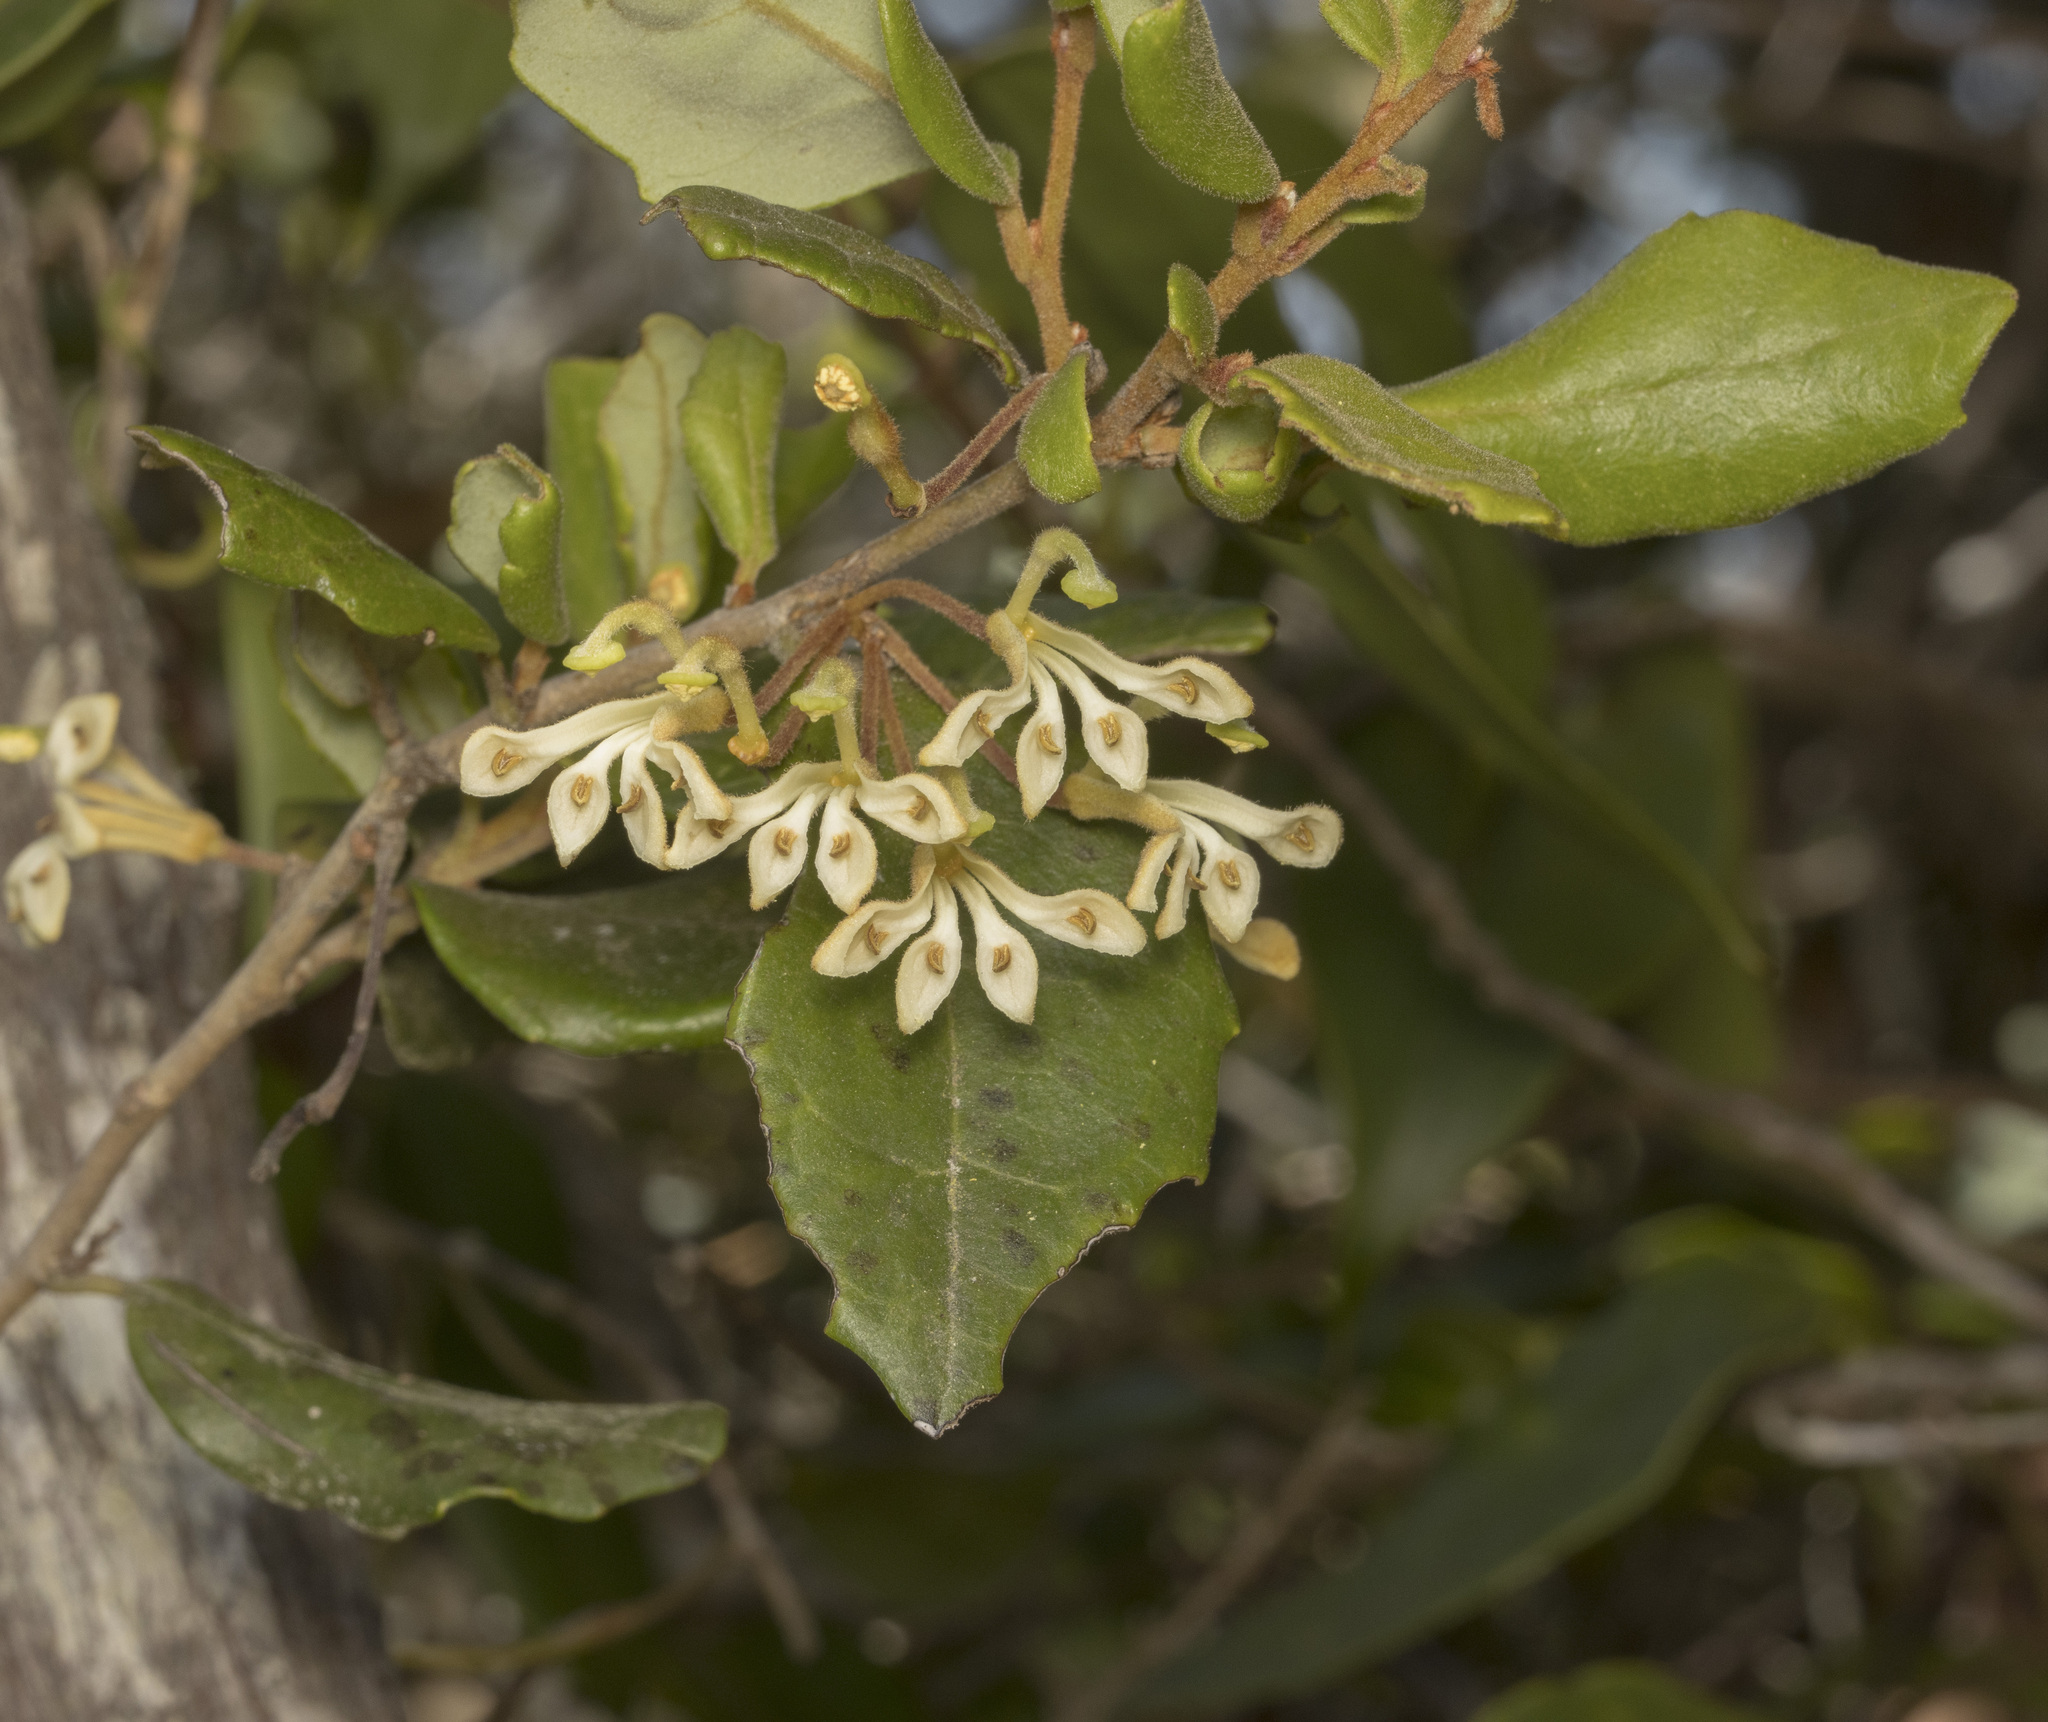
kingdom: Plantae
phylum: Tracheophyta
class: Magnoliopsida
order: Proteales
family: Proteaceae
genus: Lomatia
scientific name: Lomatia dentata
